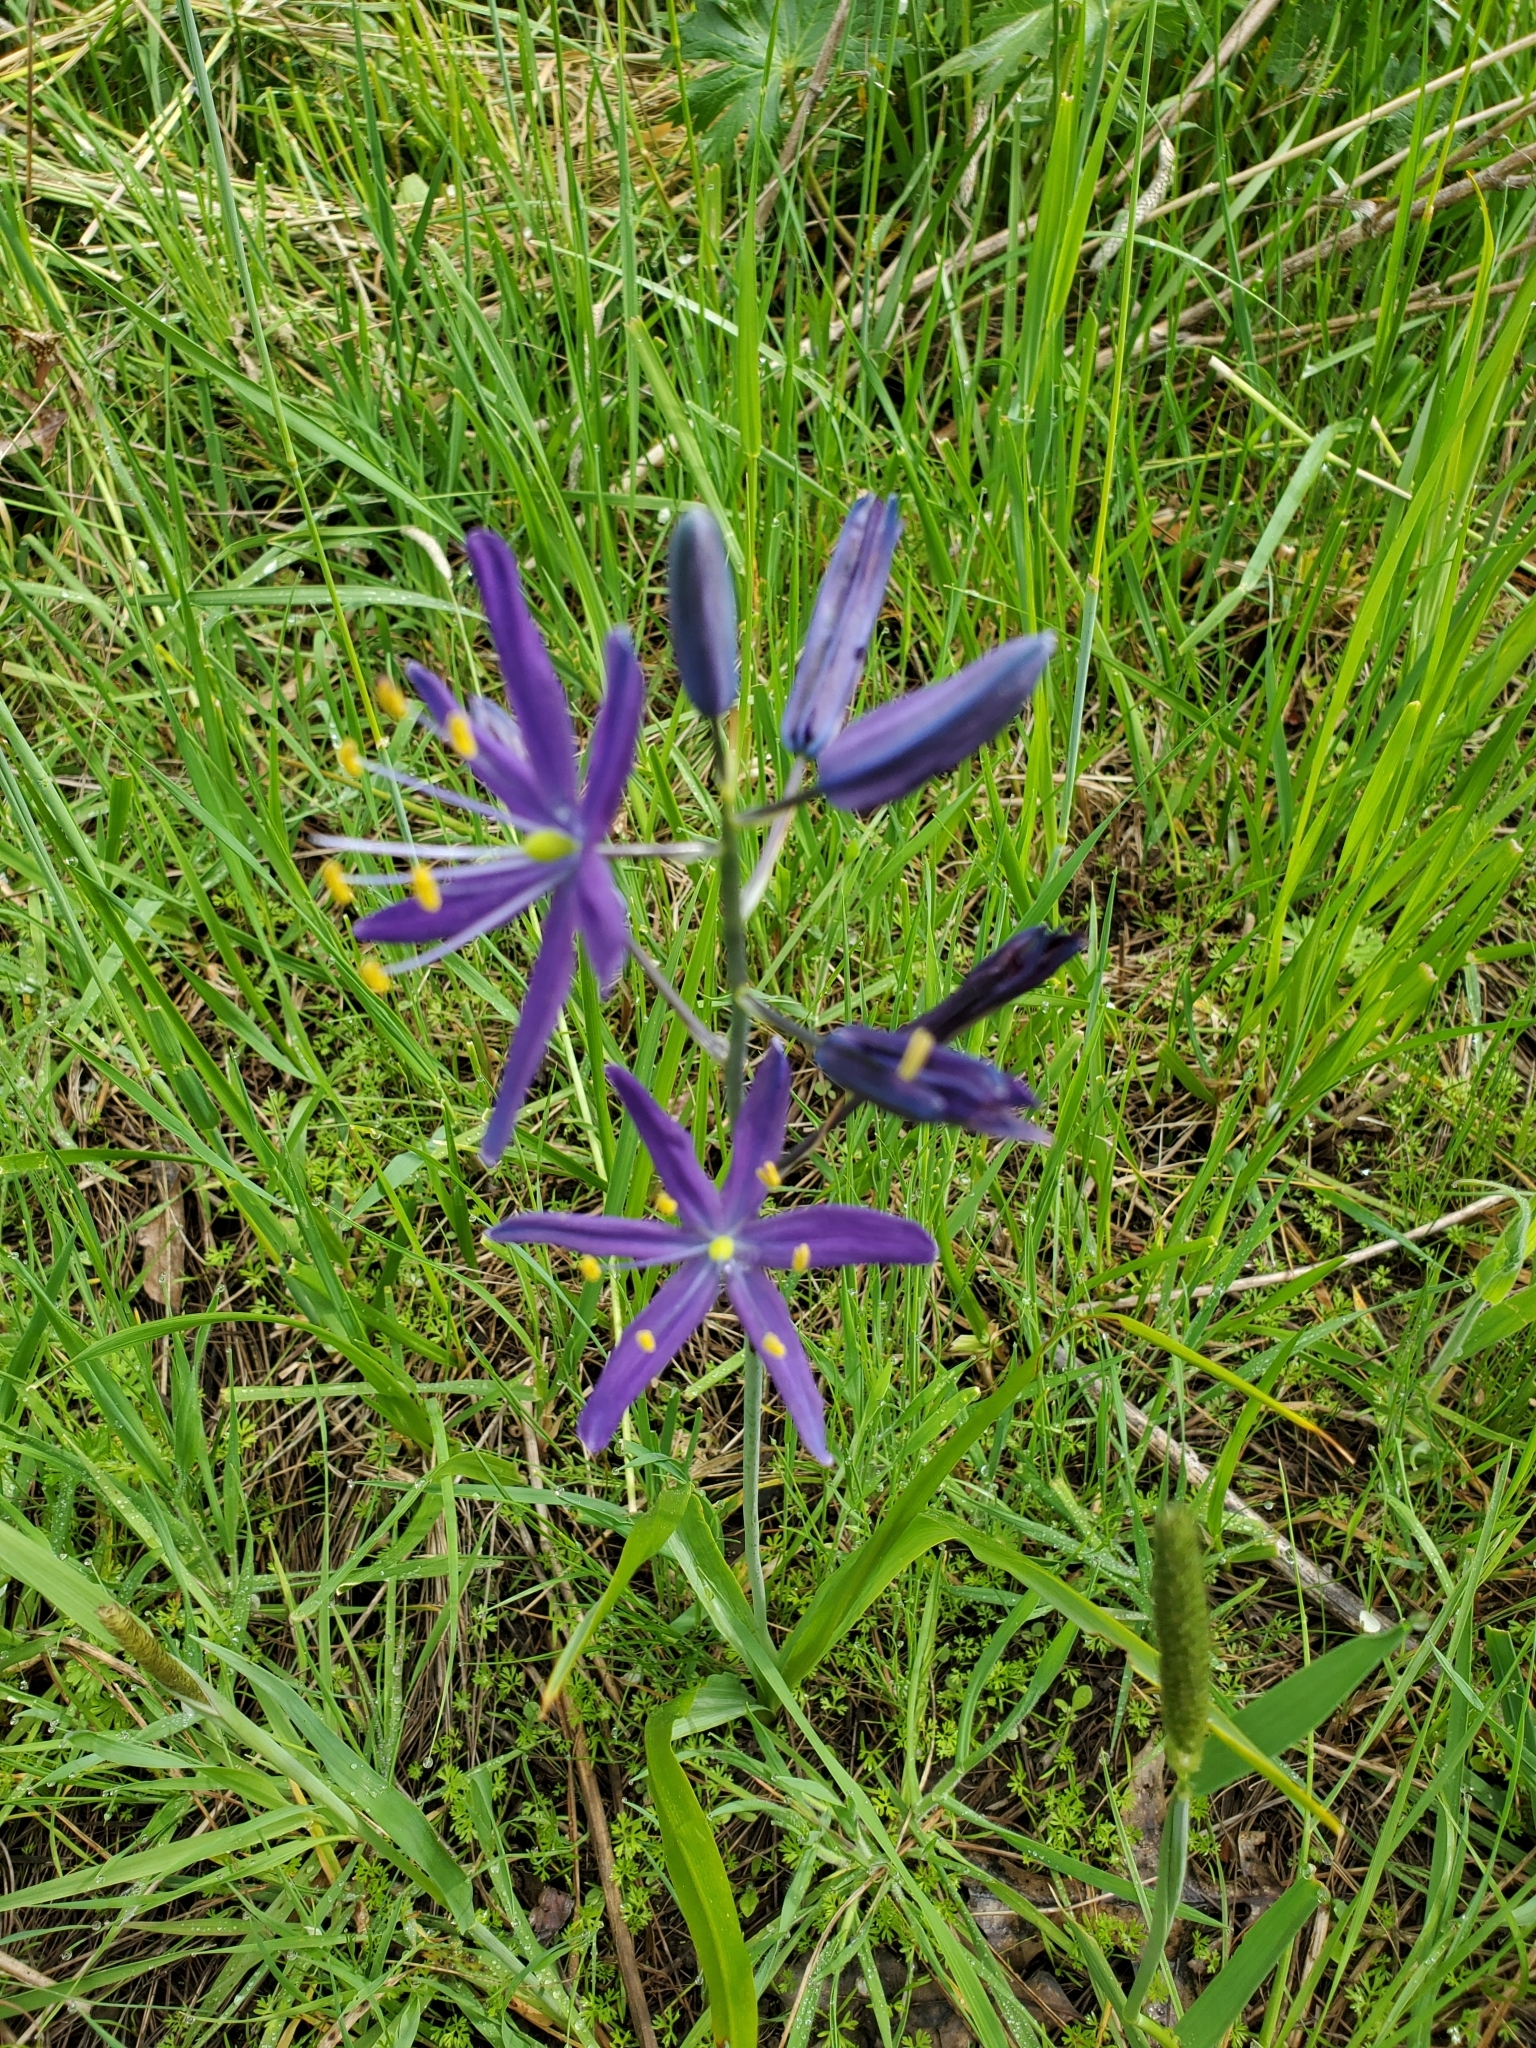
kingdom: Plantae
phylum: Tracheophyta
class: Liliopsida
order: Asparagales
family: Asparagaceae
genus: Camassia
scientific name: Camassia leichtlinii
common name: Leichtlin's camas
